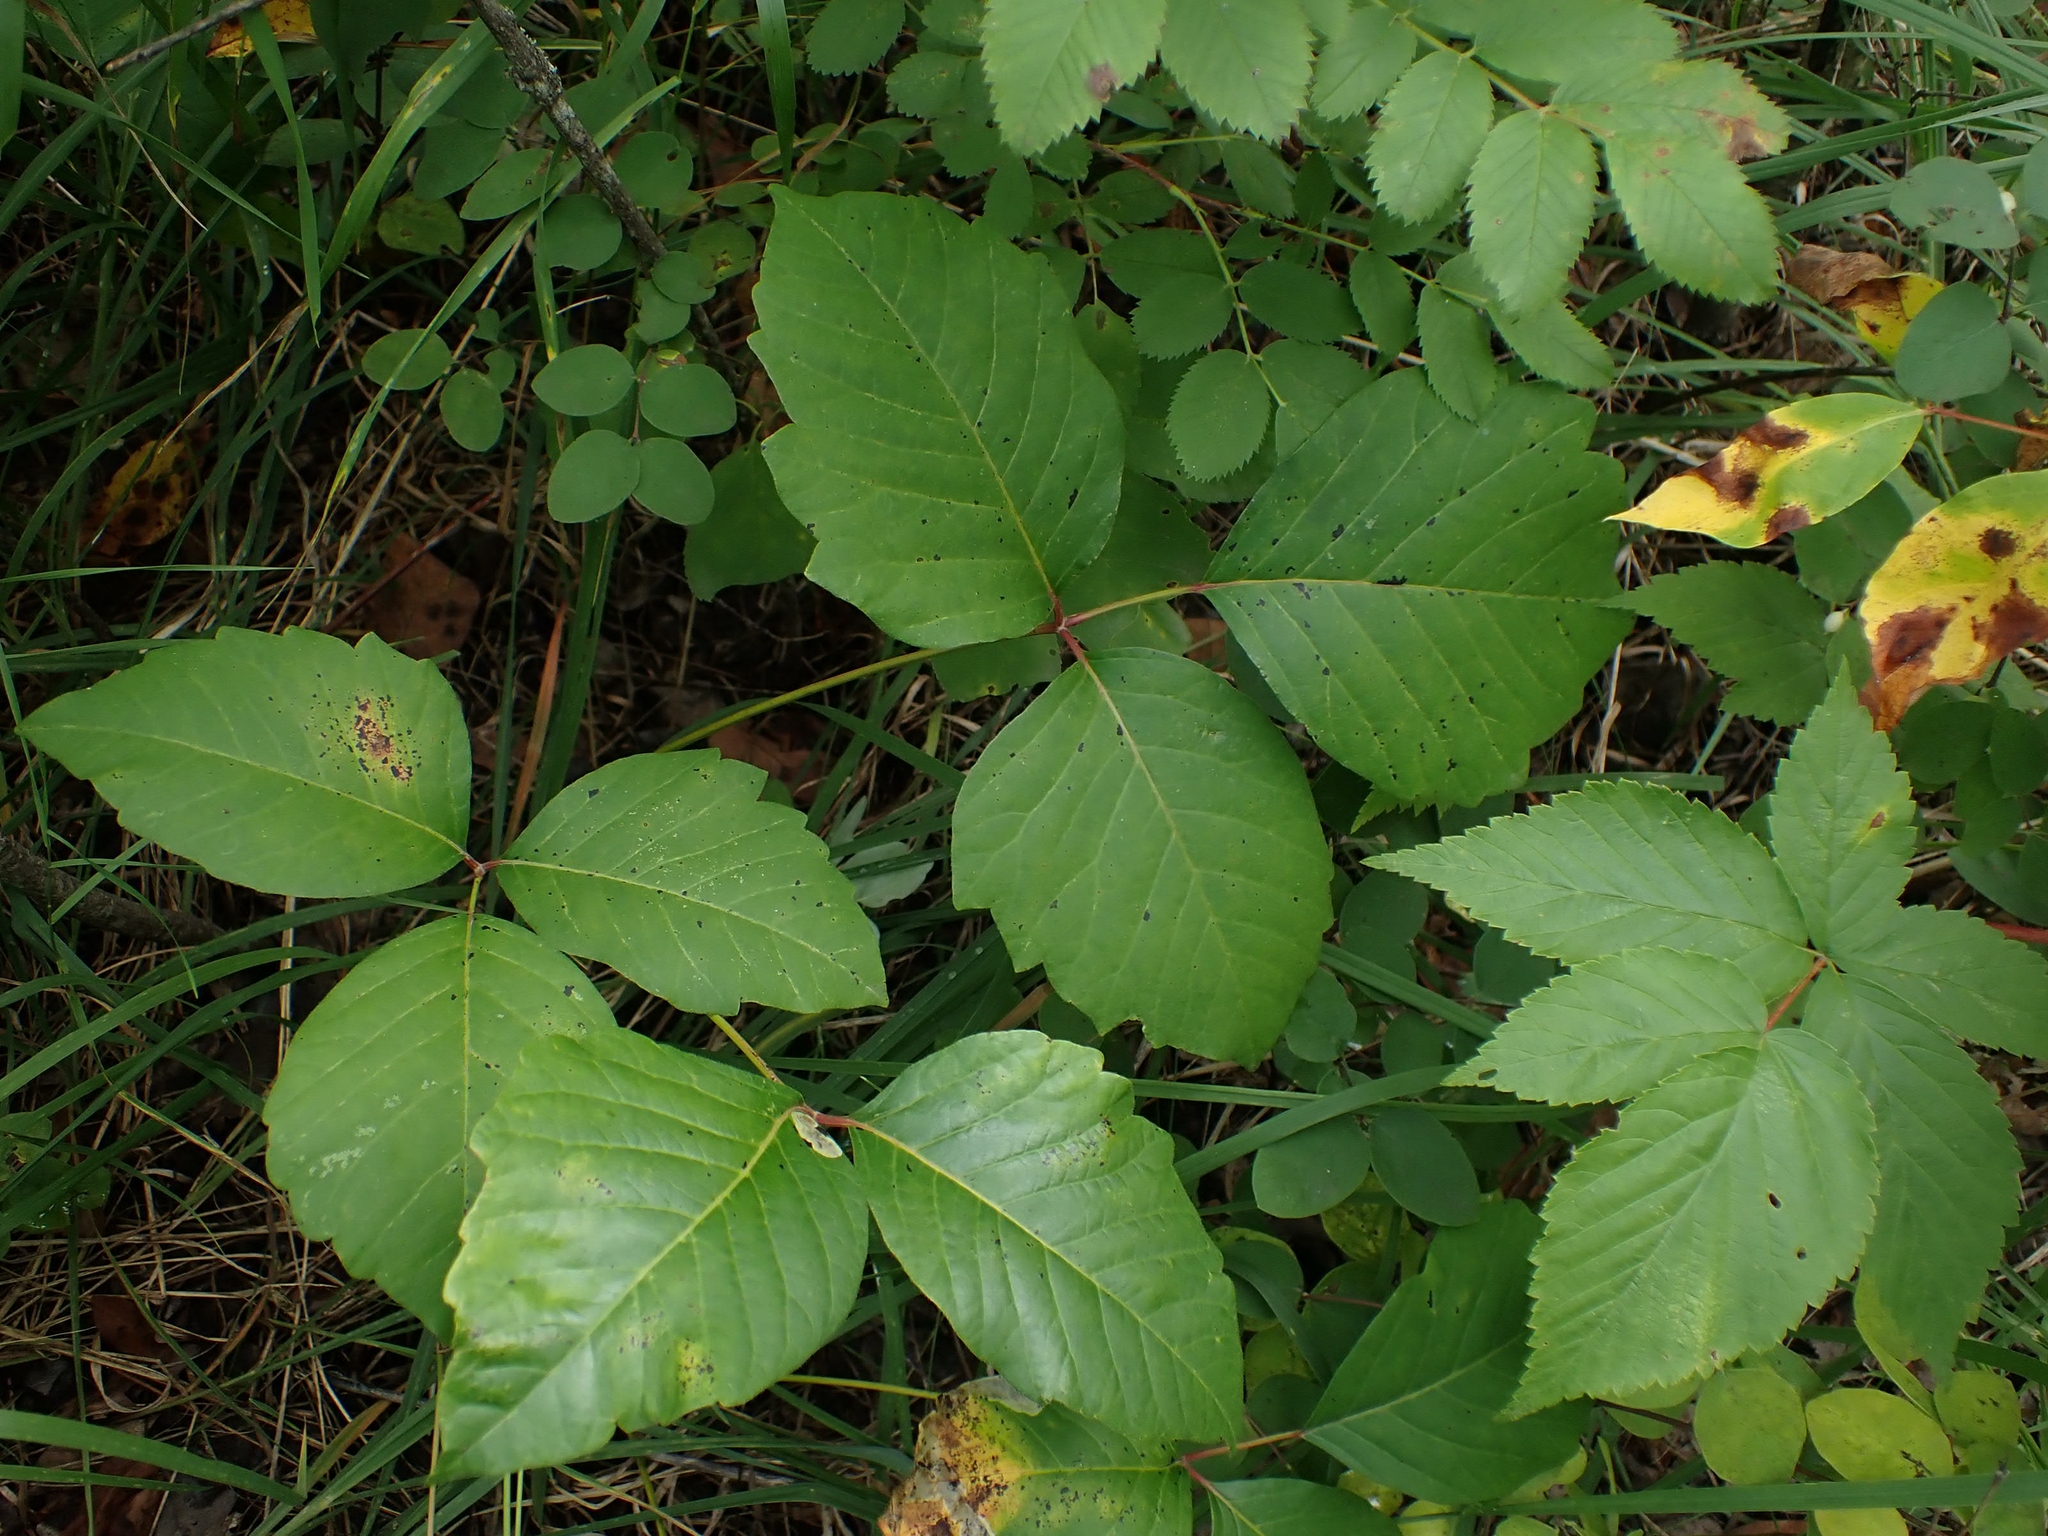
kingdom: Plantae
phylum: Tracheophyta
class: Magnoliopsida
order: Sapindales
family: Anacardiaceae
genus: Toxicodendron
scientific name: Toxicodendron rydbergii
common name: Rydberg's poison-ivy
